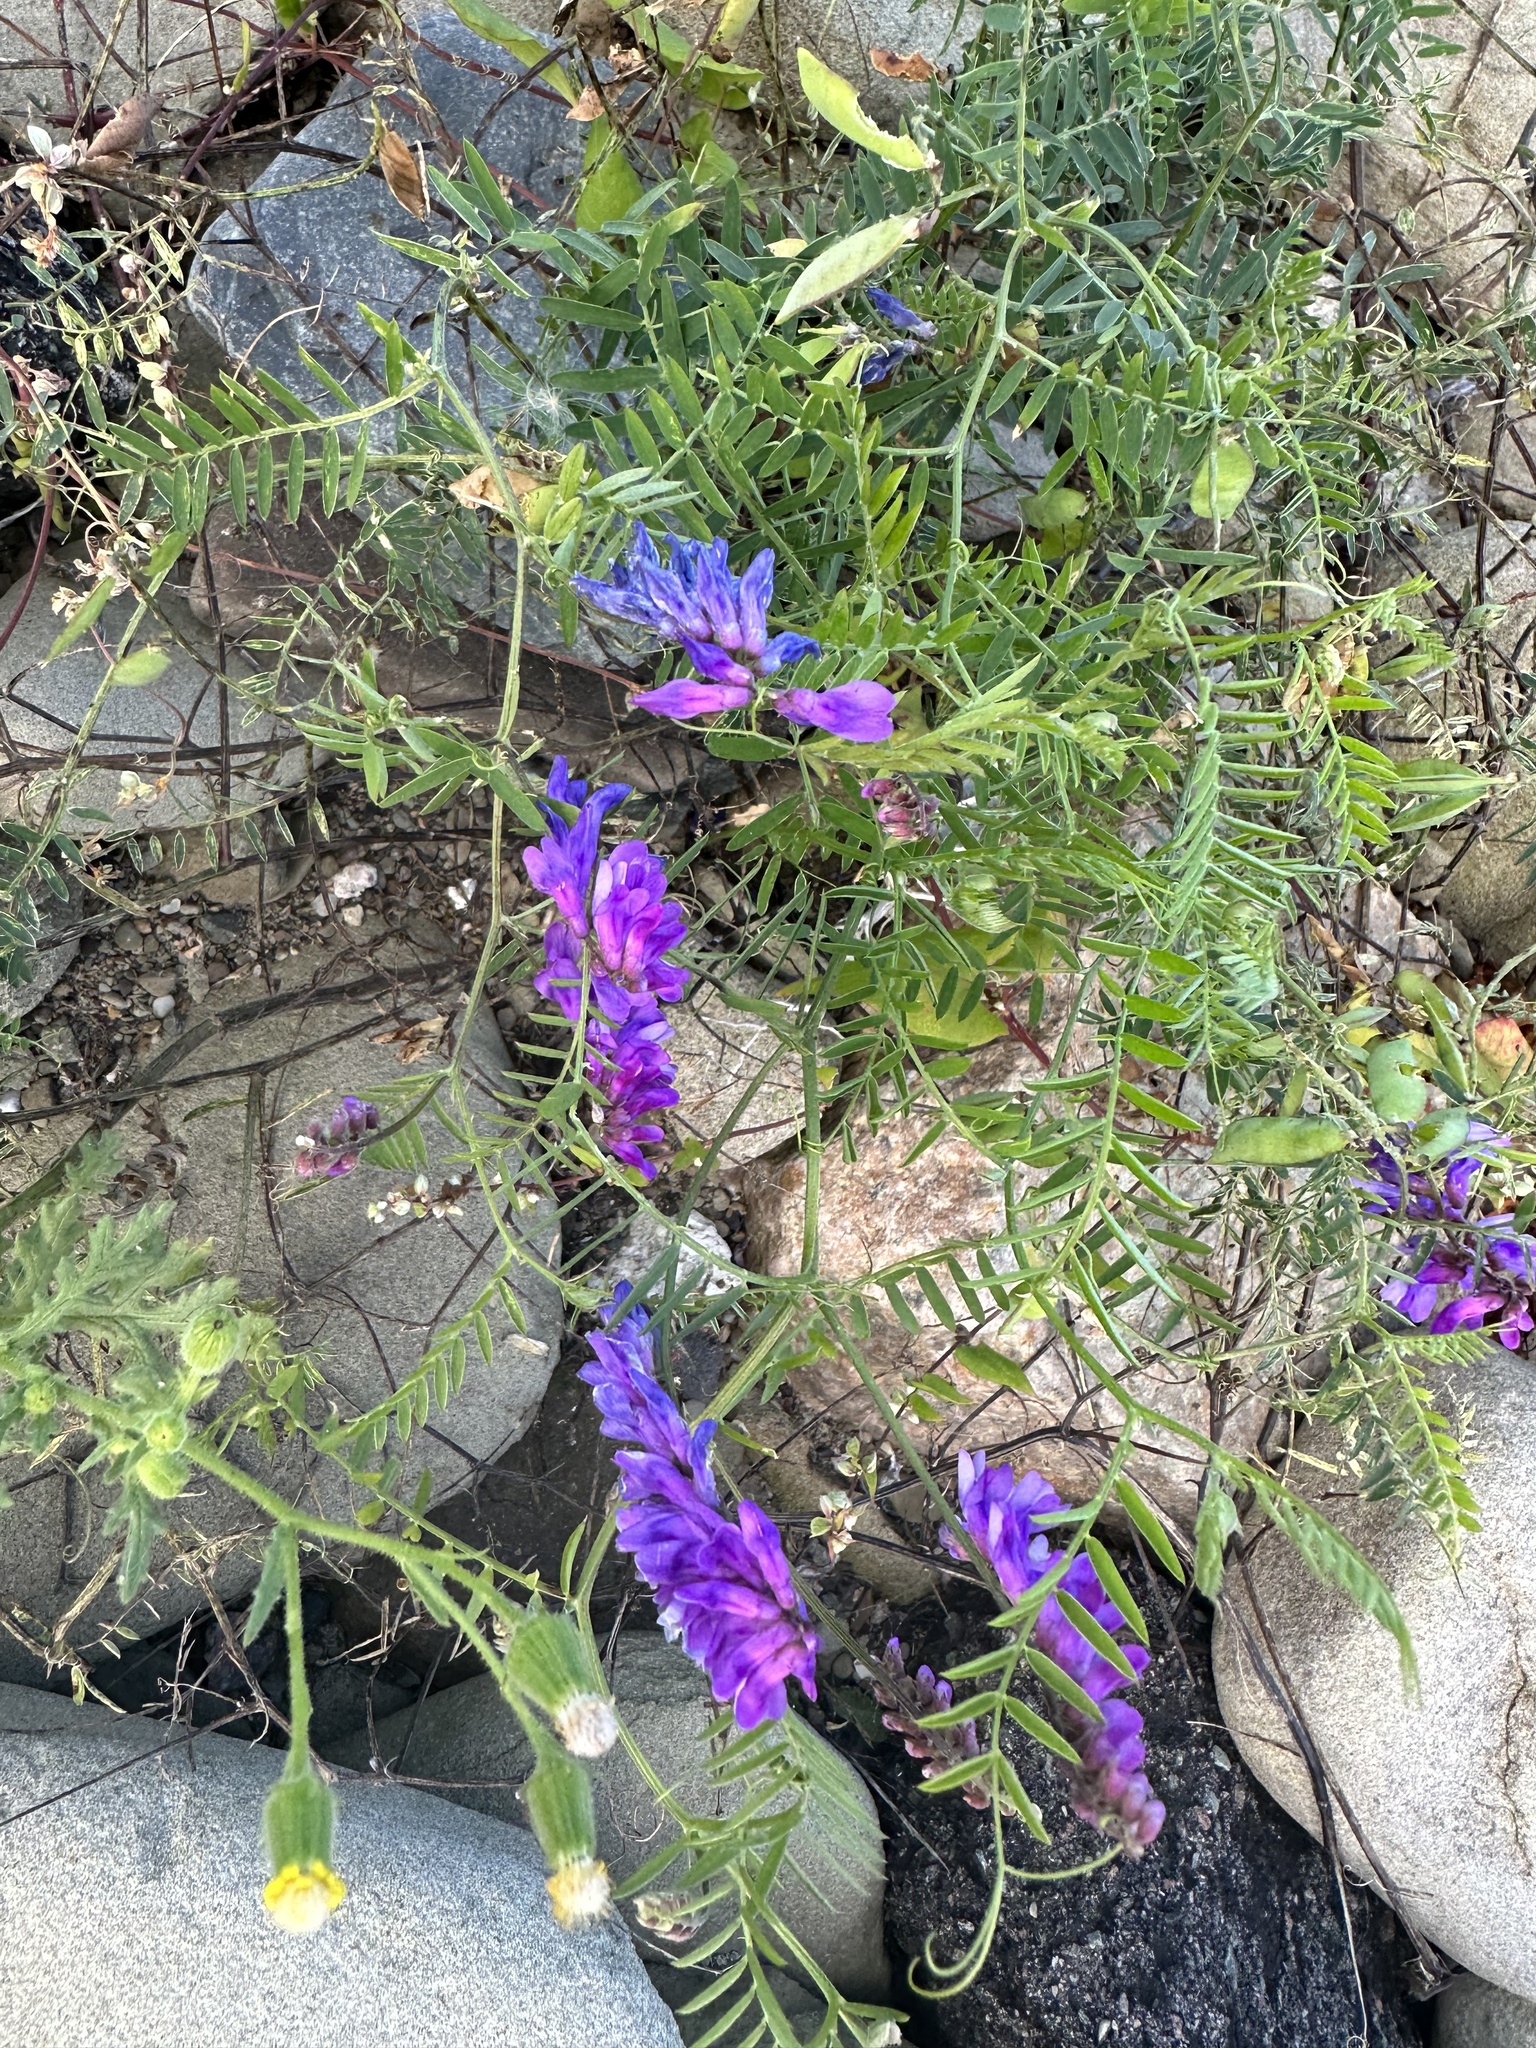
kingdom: Plantae
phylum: Tracheophyta
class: Magnoliopsida
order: Fabales
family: Fabaceae
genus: Vicia
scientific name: Vicia cracca
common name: Bird vetch
